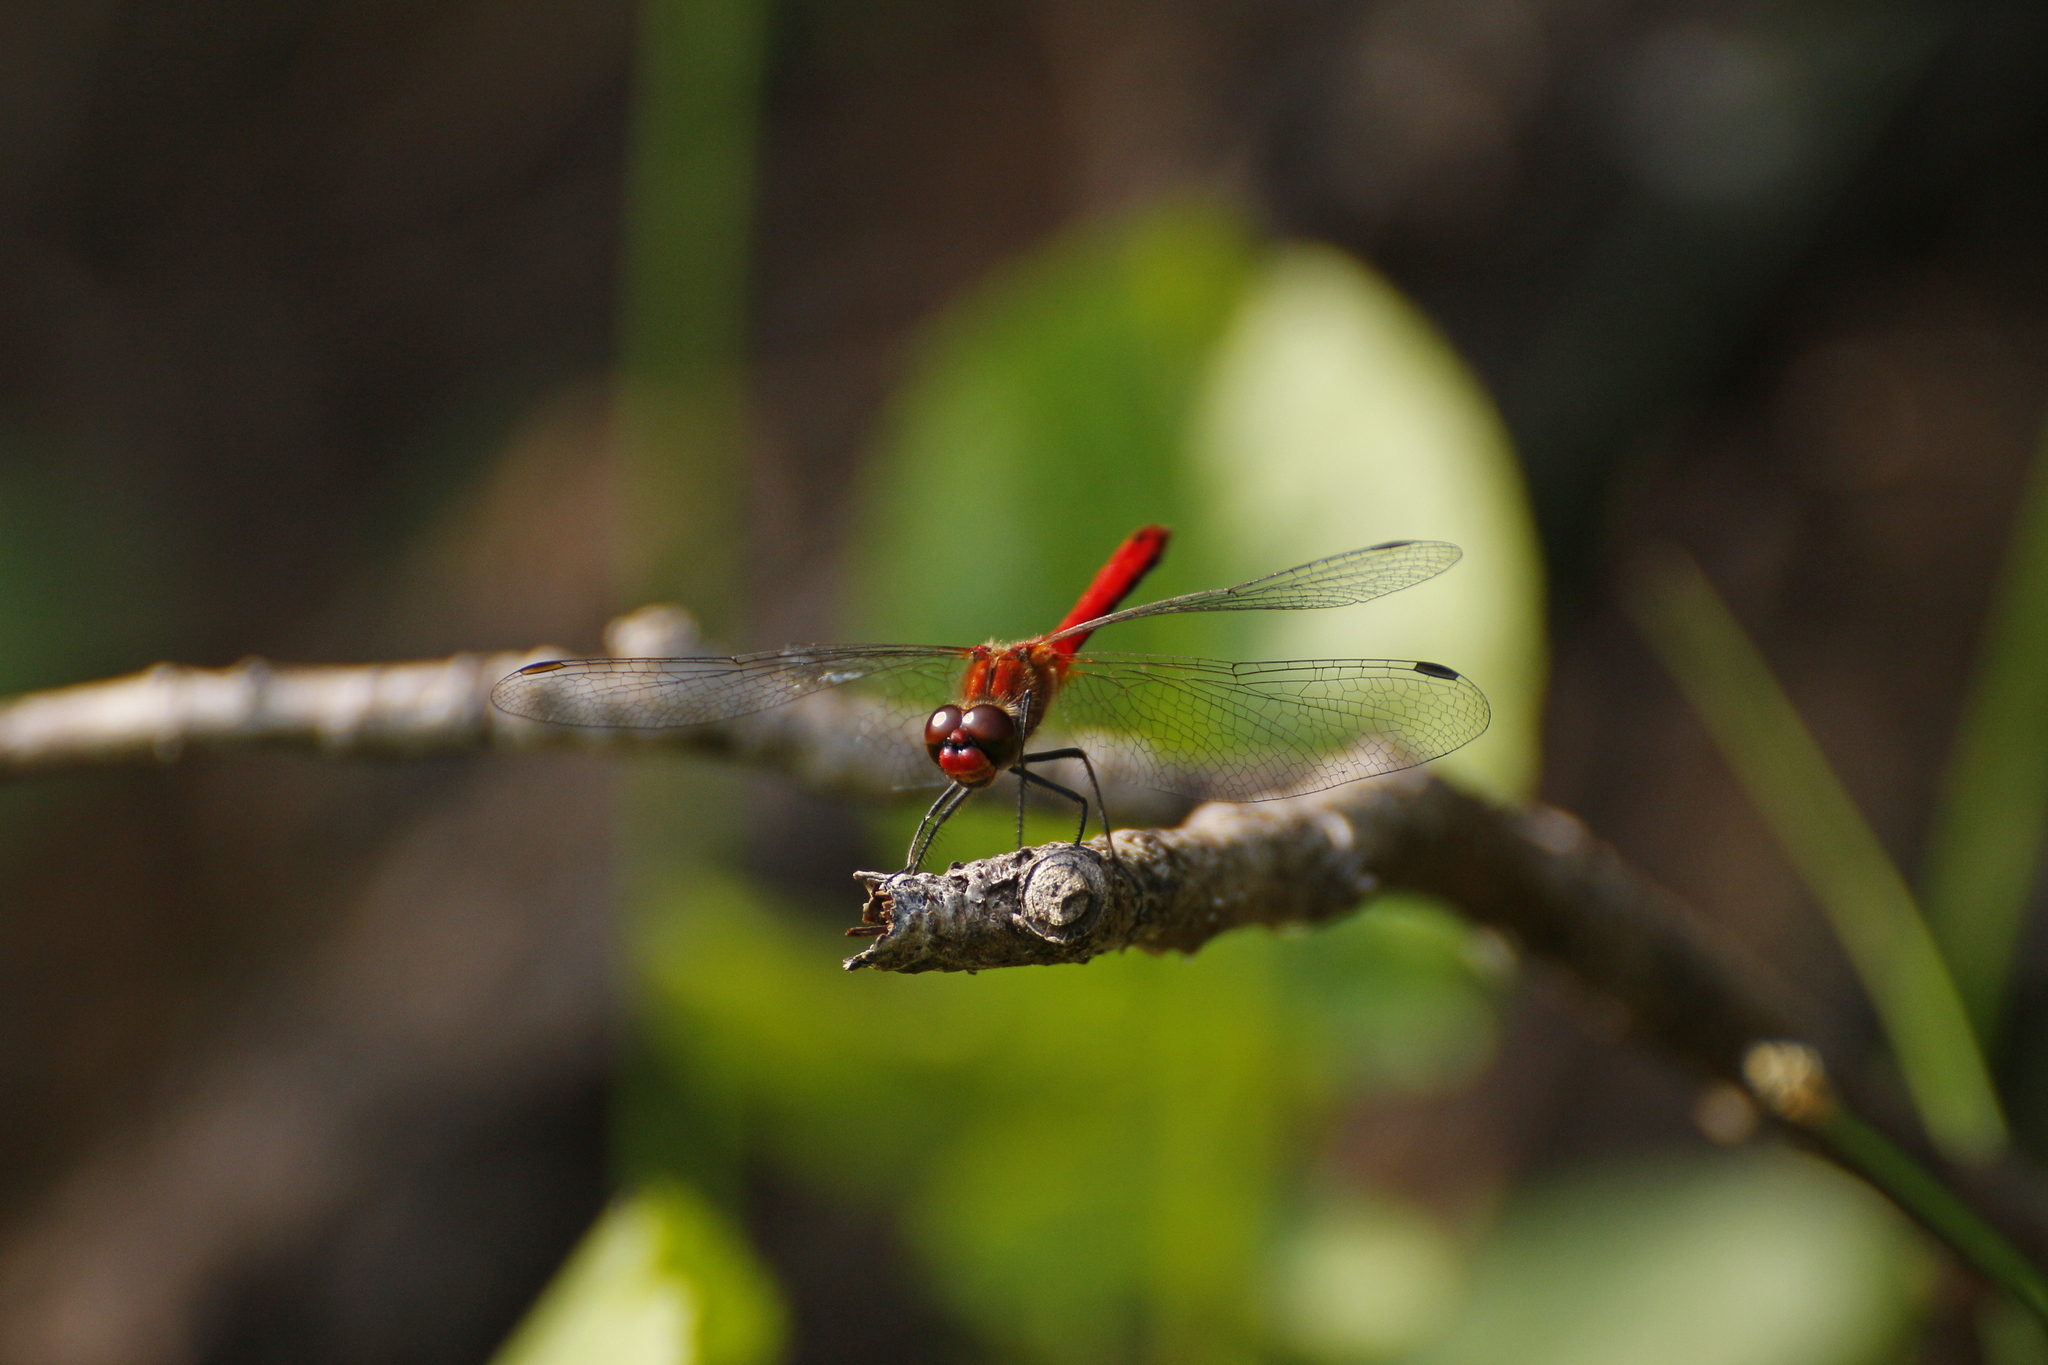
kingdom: Animalia
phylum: Arthropoda
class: Insecta
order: Odonata
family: Libellulidae
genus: Sympetrum
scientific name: Sympetrum sanguineum
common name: Ruddy darter
